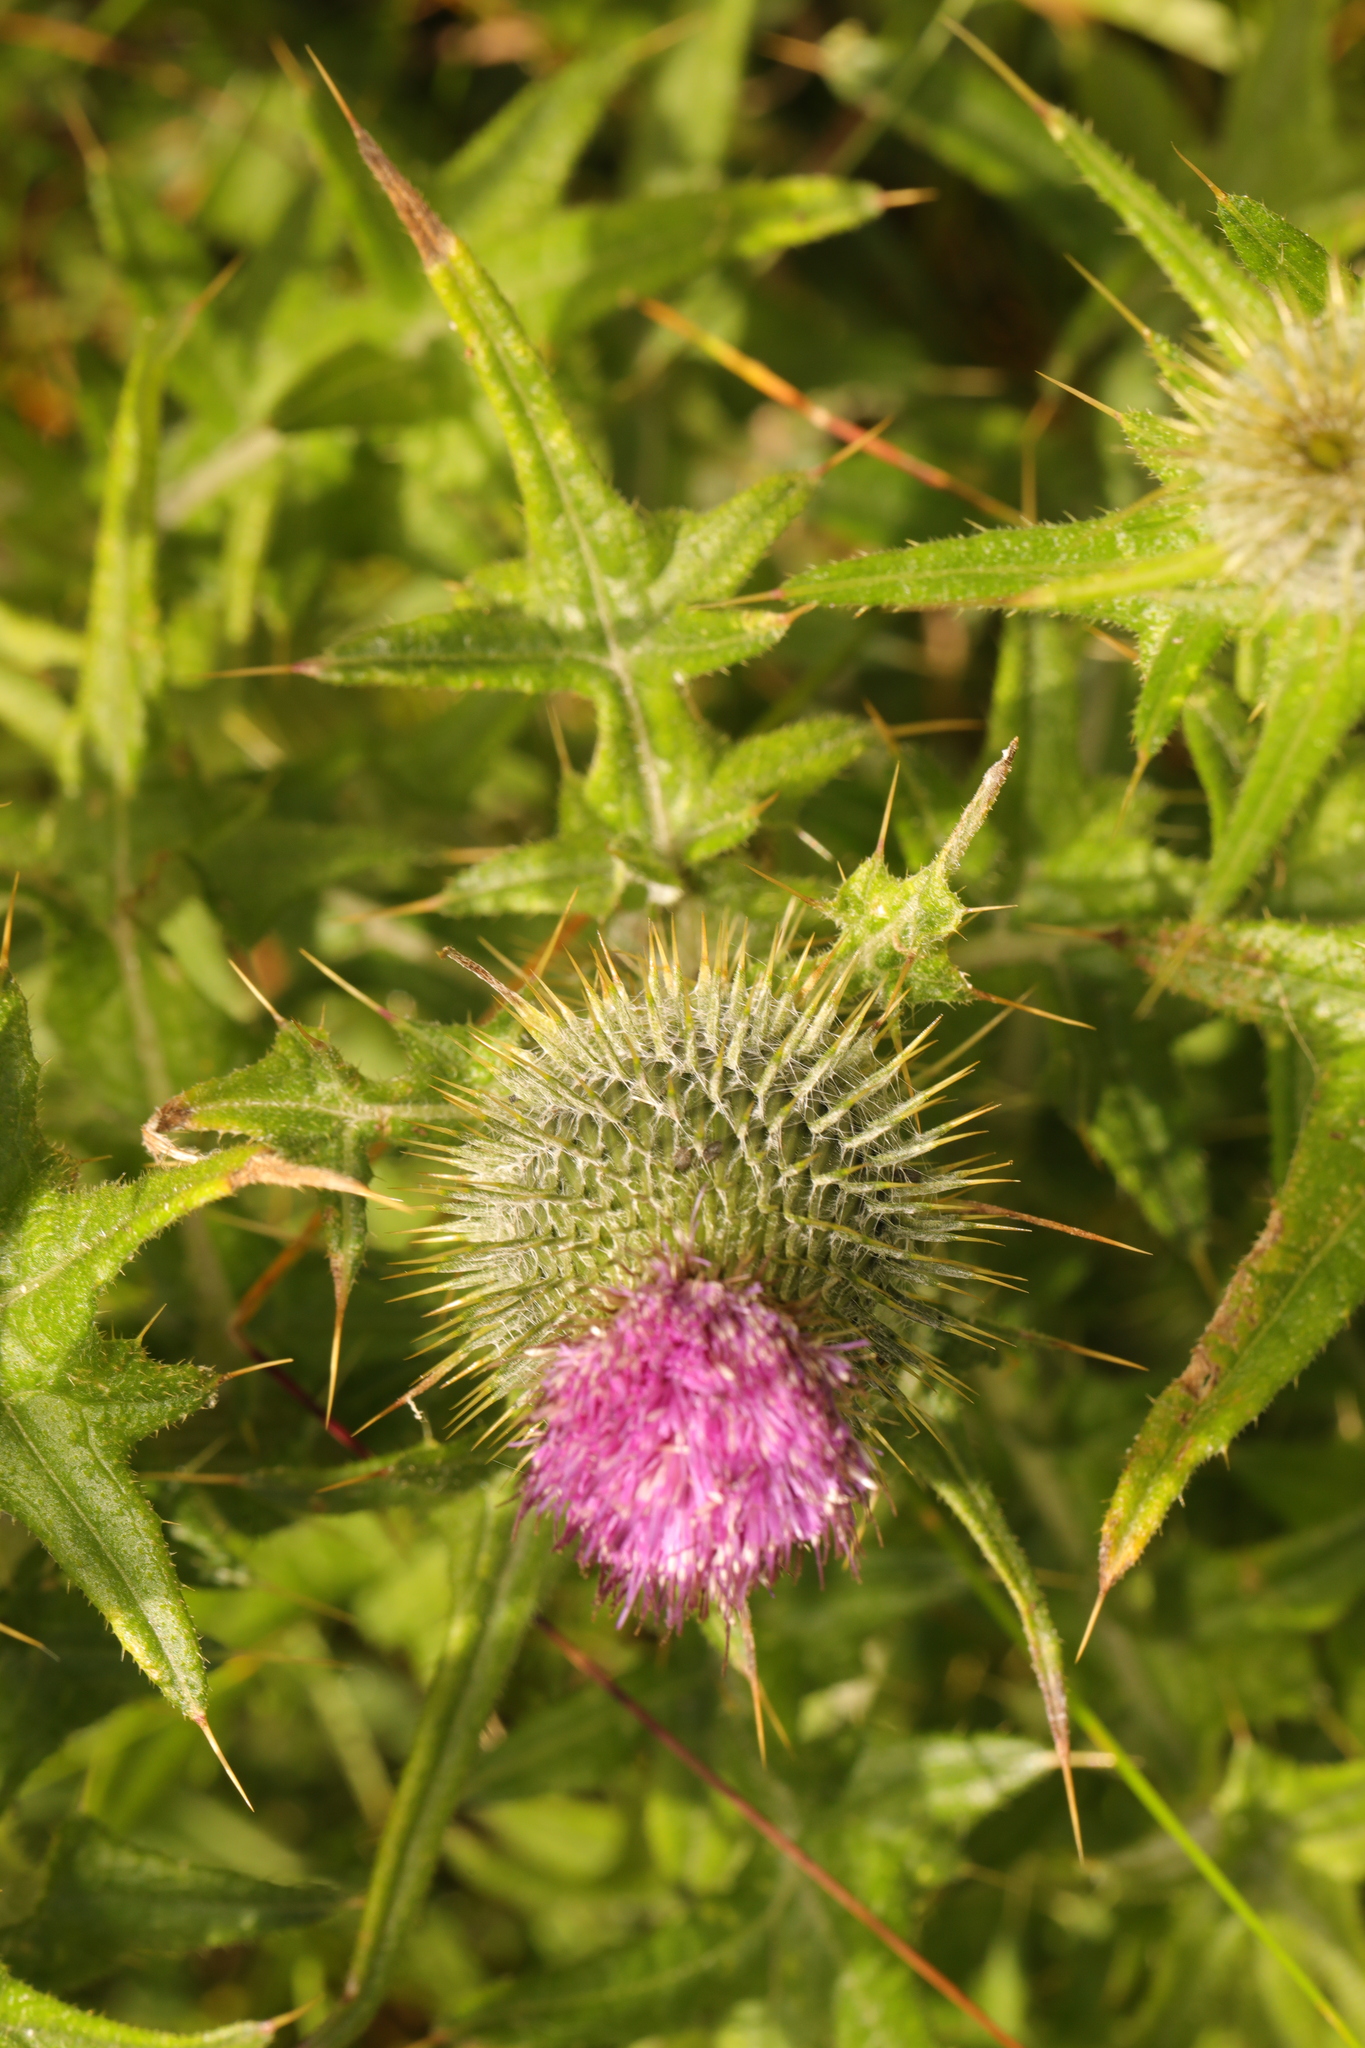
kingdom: Plantae
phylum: Tracheophyta
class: Magnoliopsida
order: Asterales
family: Asteraceae
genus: Cirsium
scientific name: Cirsium vulgare
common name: Bull thistle
